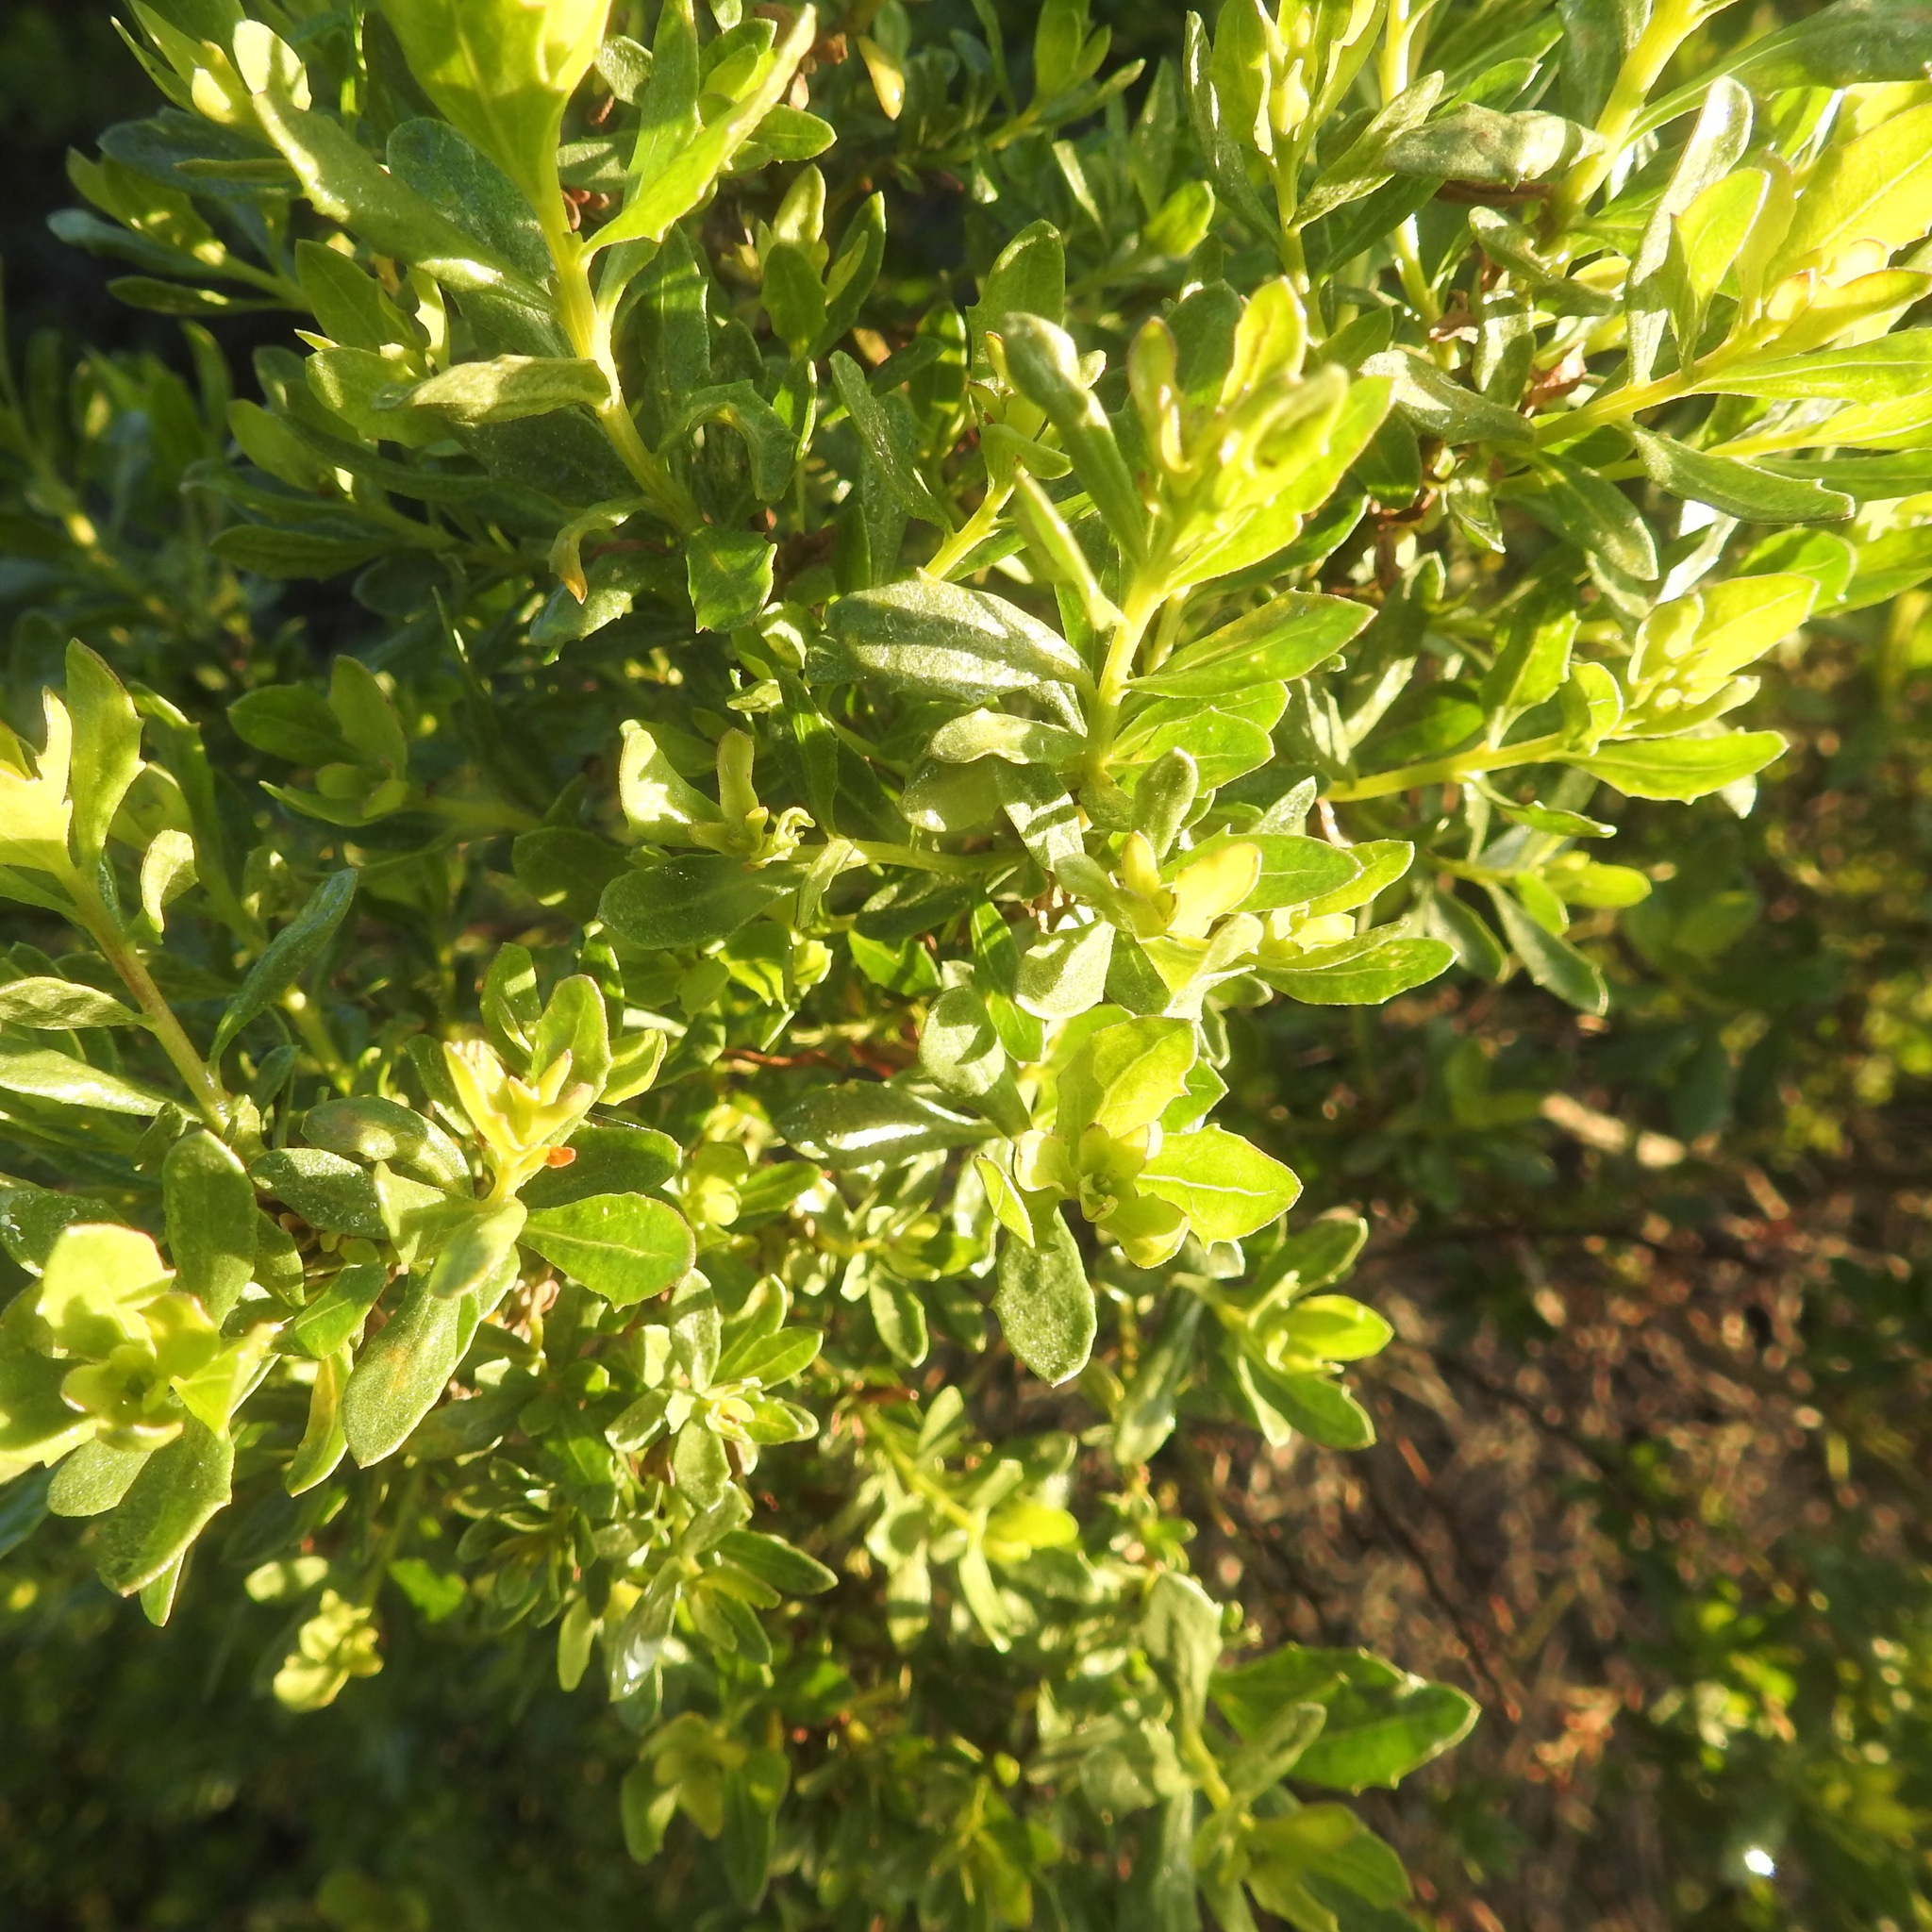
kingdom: Plantae
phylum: Tracheophyta
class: Magnoliopsida
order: Asterales
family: Asteraceae
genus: Baccharis
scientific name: Baccharis pilularis
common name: Coyotebrush
